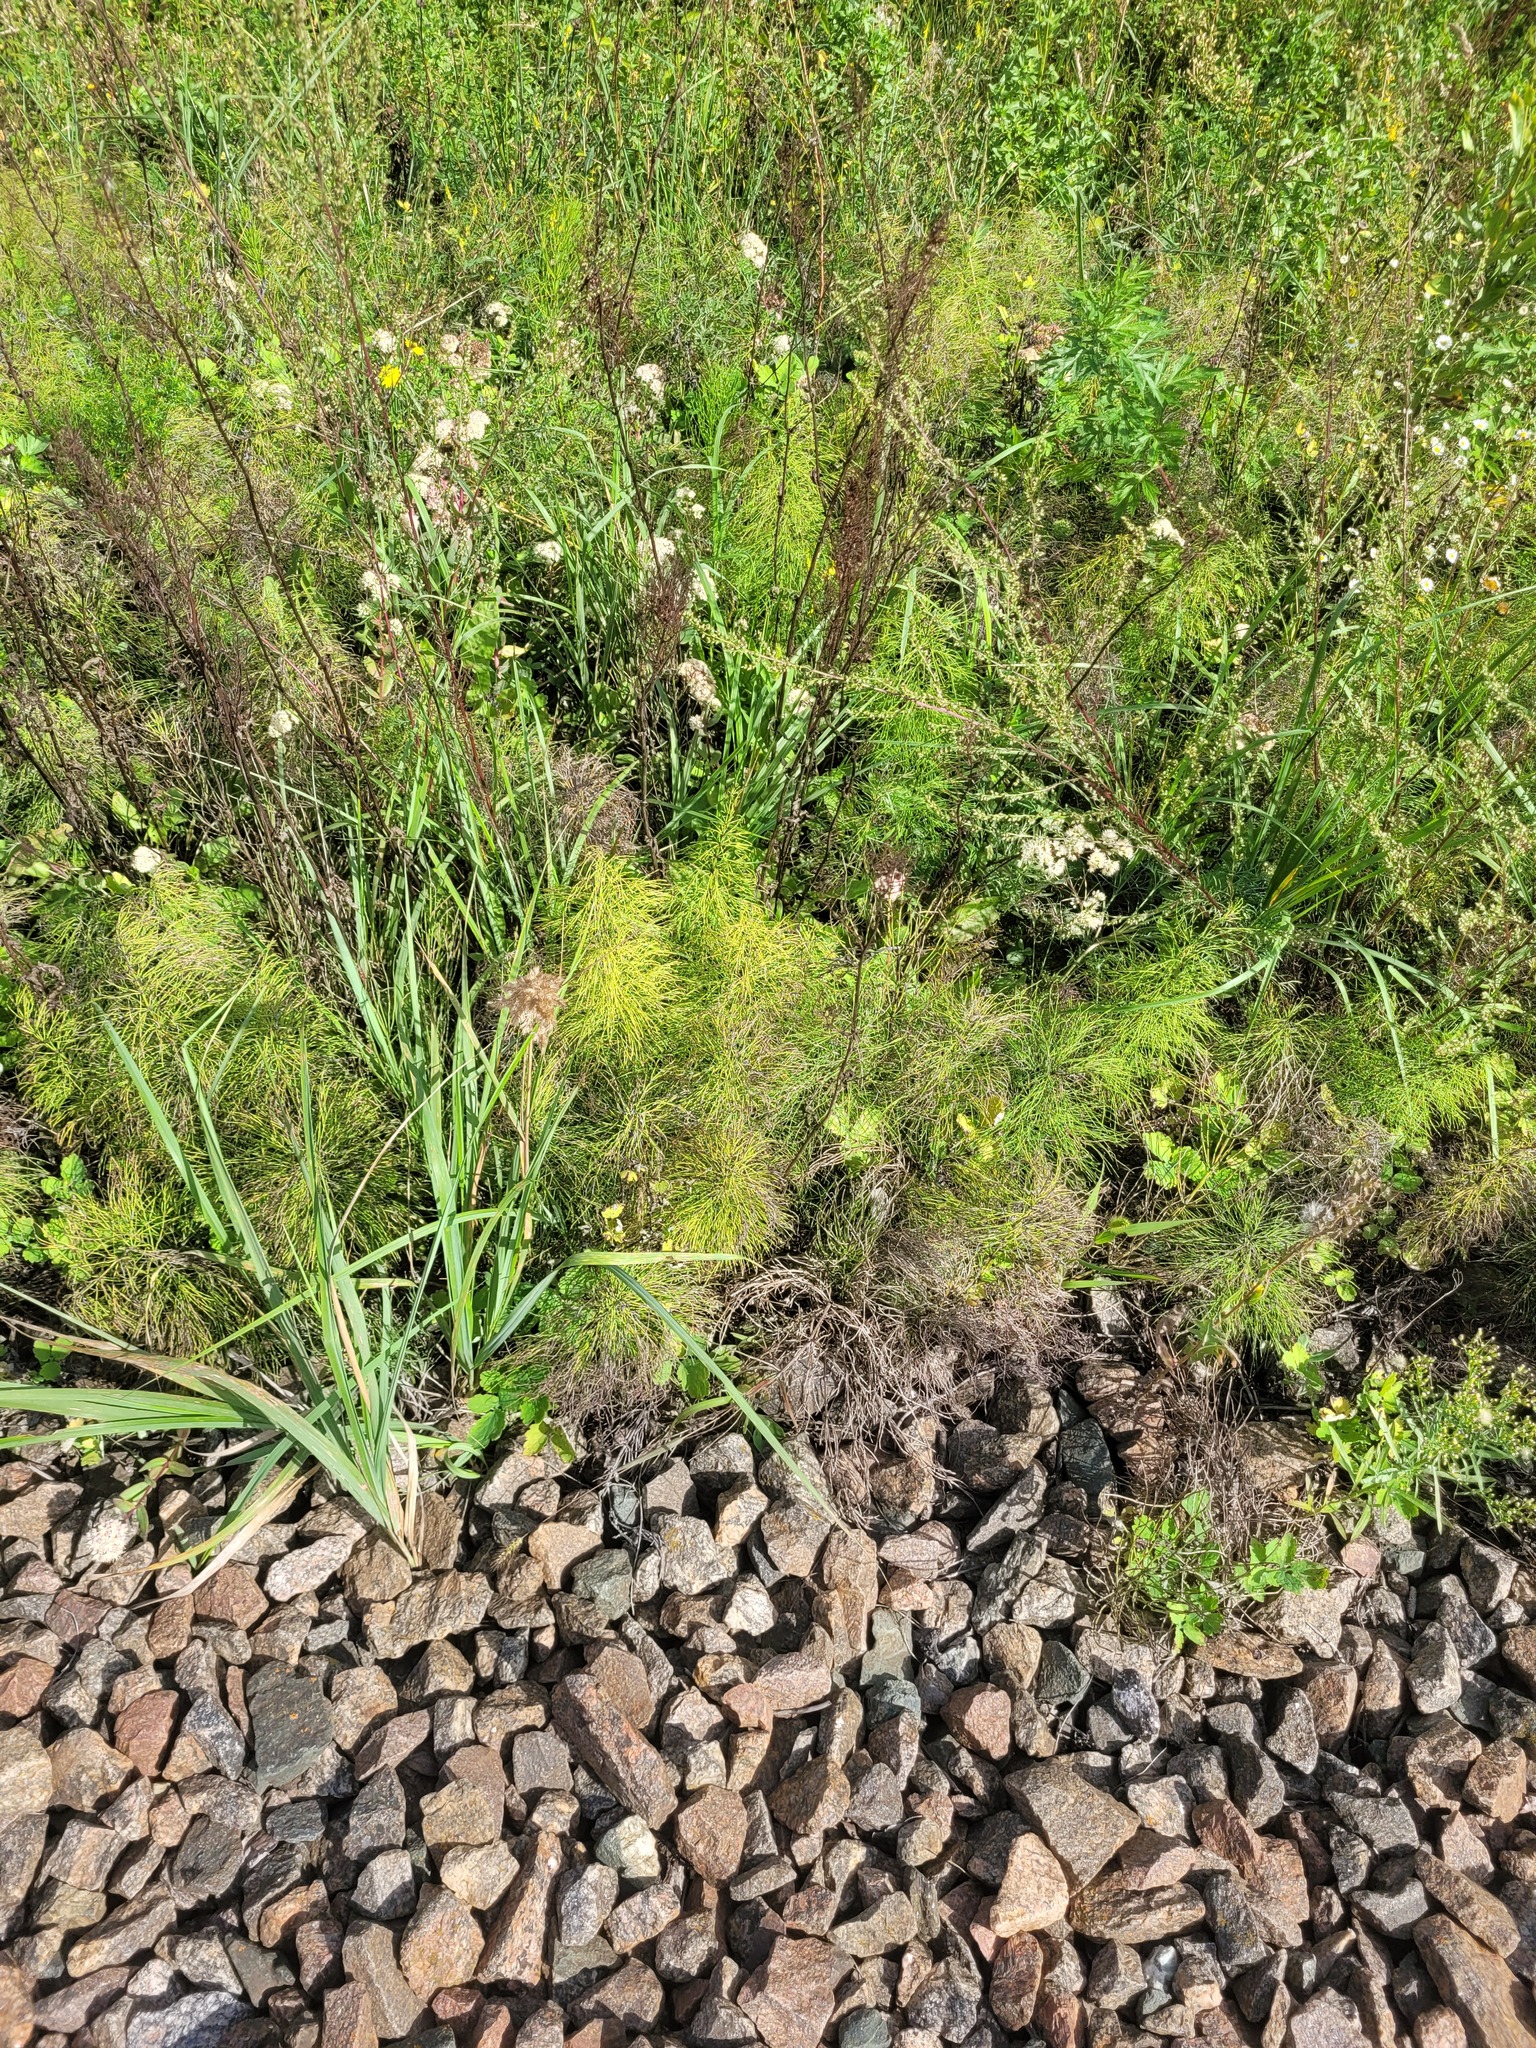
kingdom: Plantae
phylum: Tracheophyta
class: Polypodiopsida
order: Equisetales
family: Equisetaceae
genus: Equisetum
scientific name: Equisetum sylvaticum
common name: Wood horsetail
